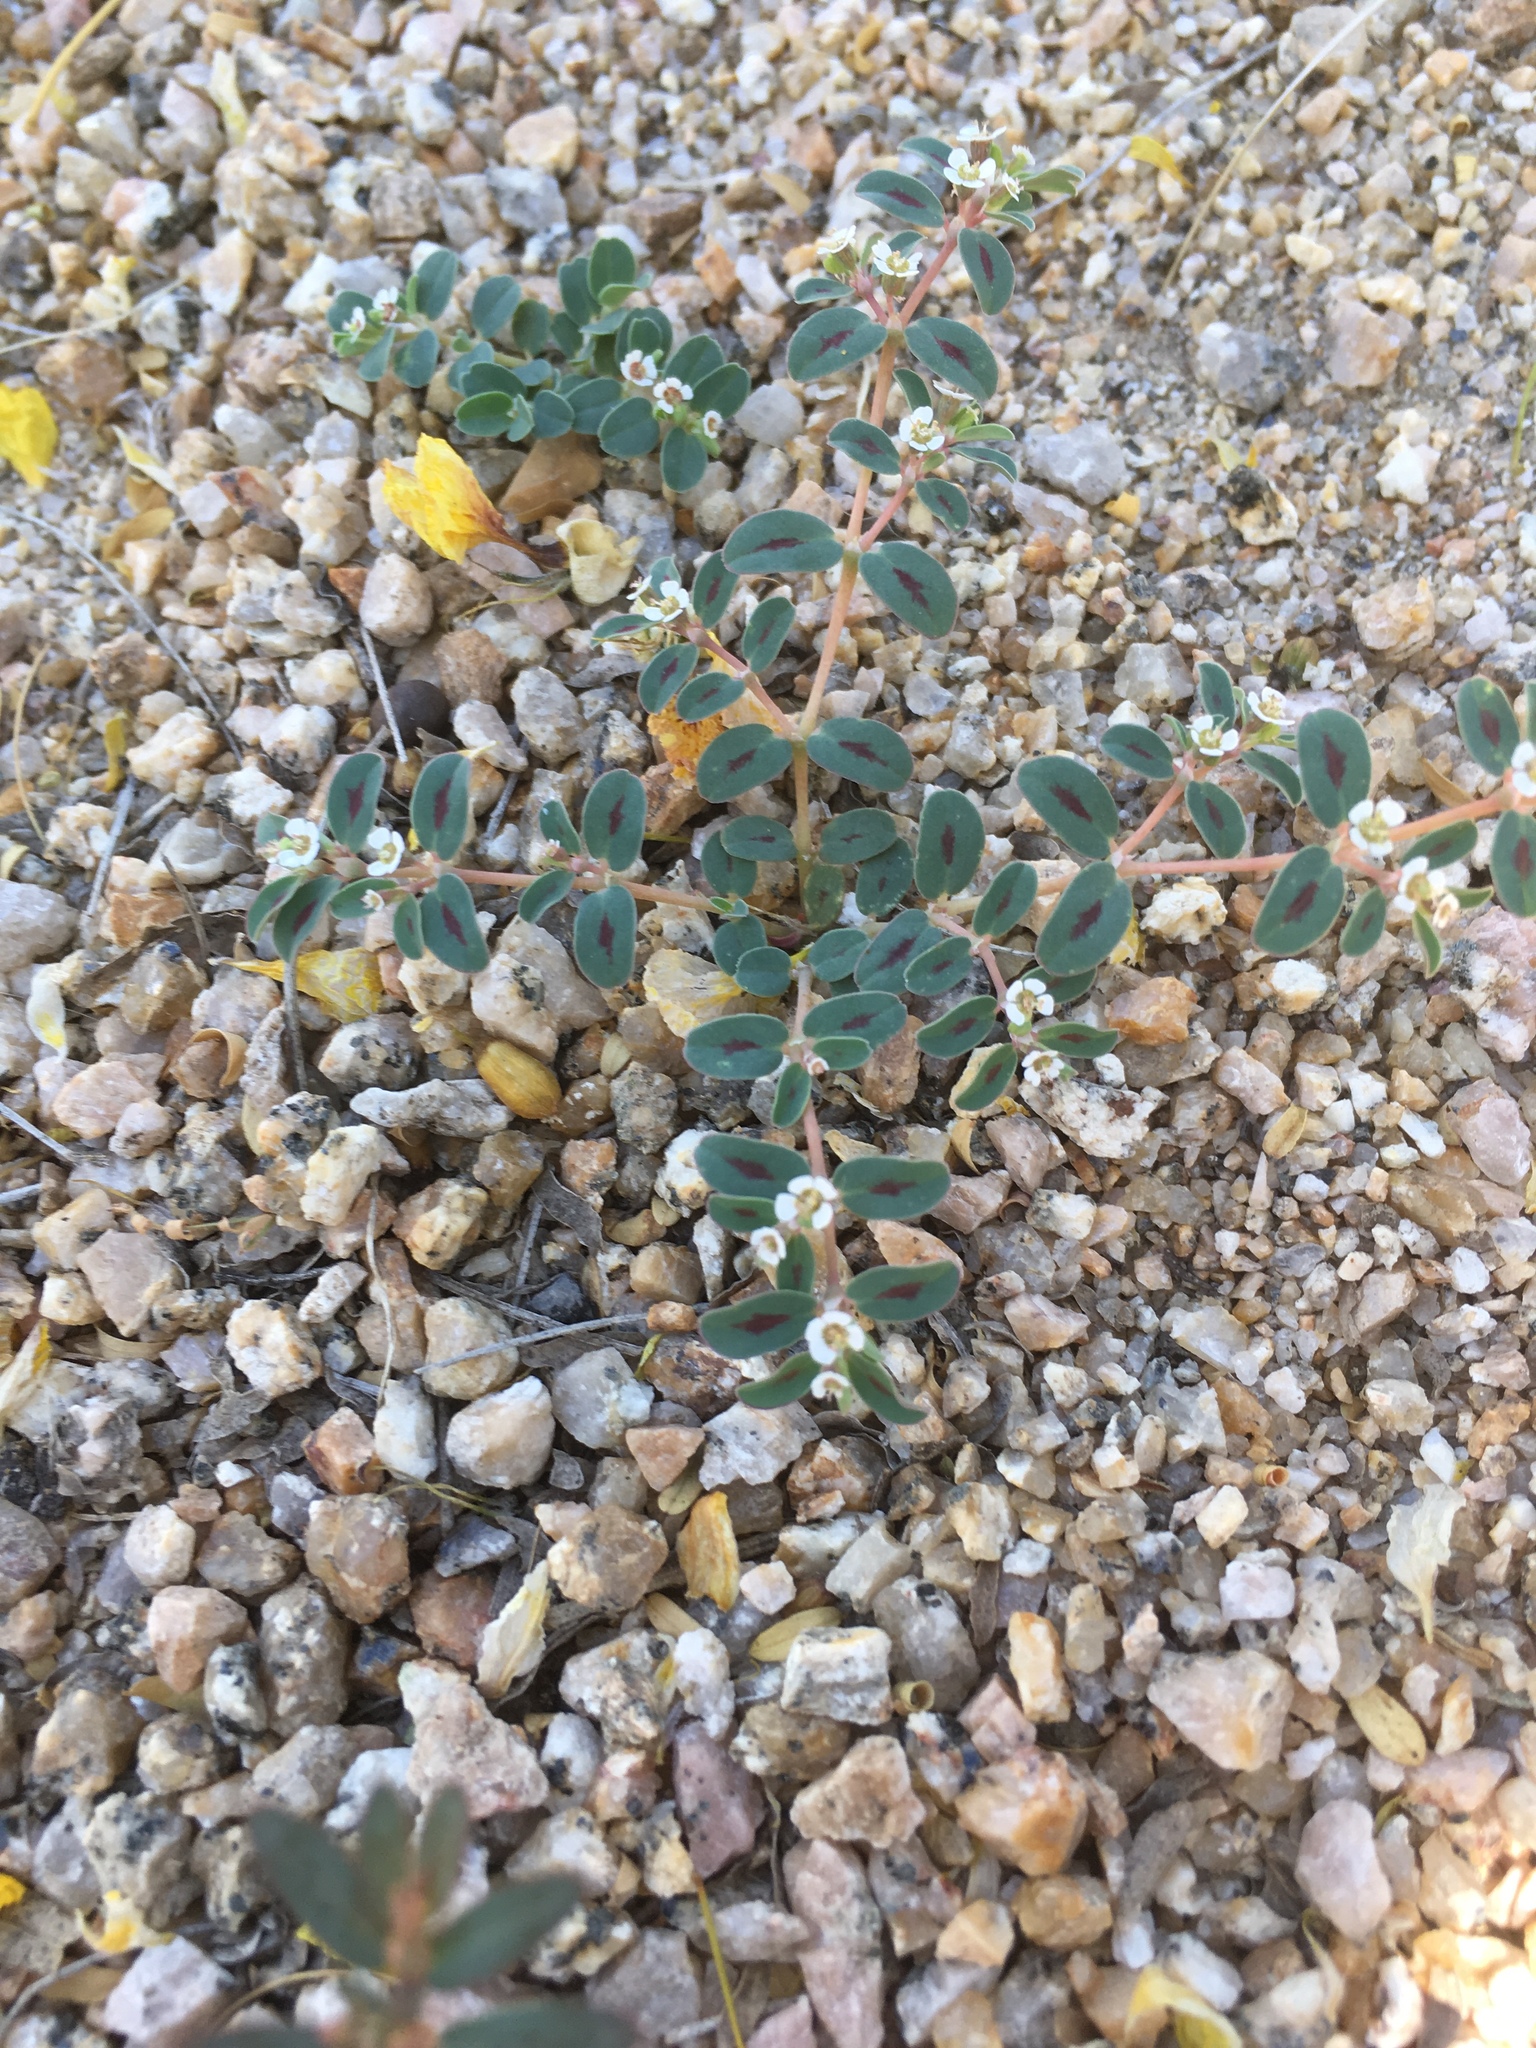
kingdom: Plantae
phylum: Tracheophyta
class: Magnoliopsida
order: Malpighiales
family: Euphorbiaceae
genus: Euphorbia
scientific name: Euphorbia albomarginata
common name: Whitemargin sandmat
